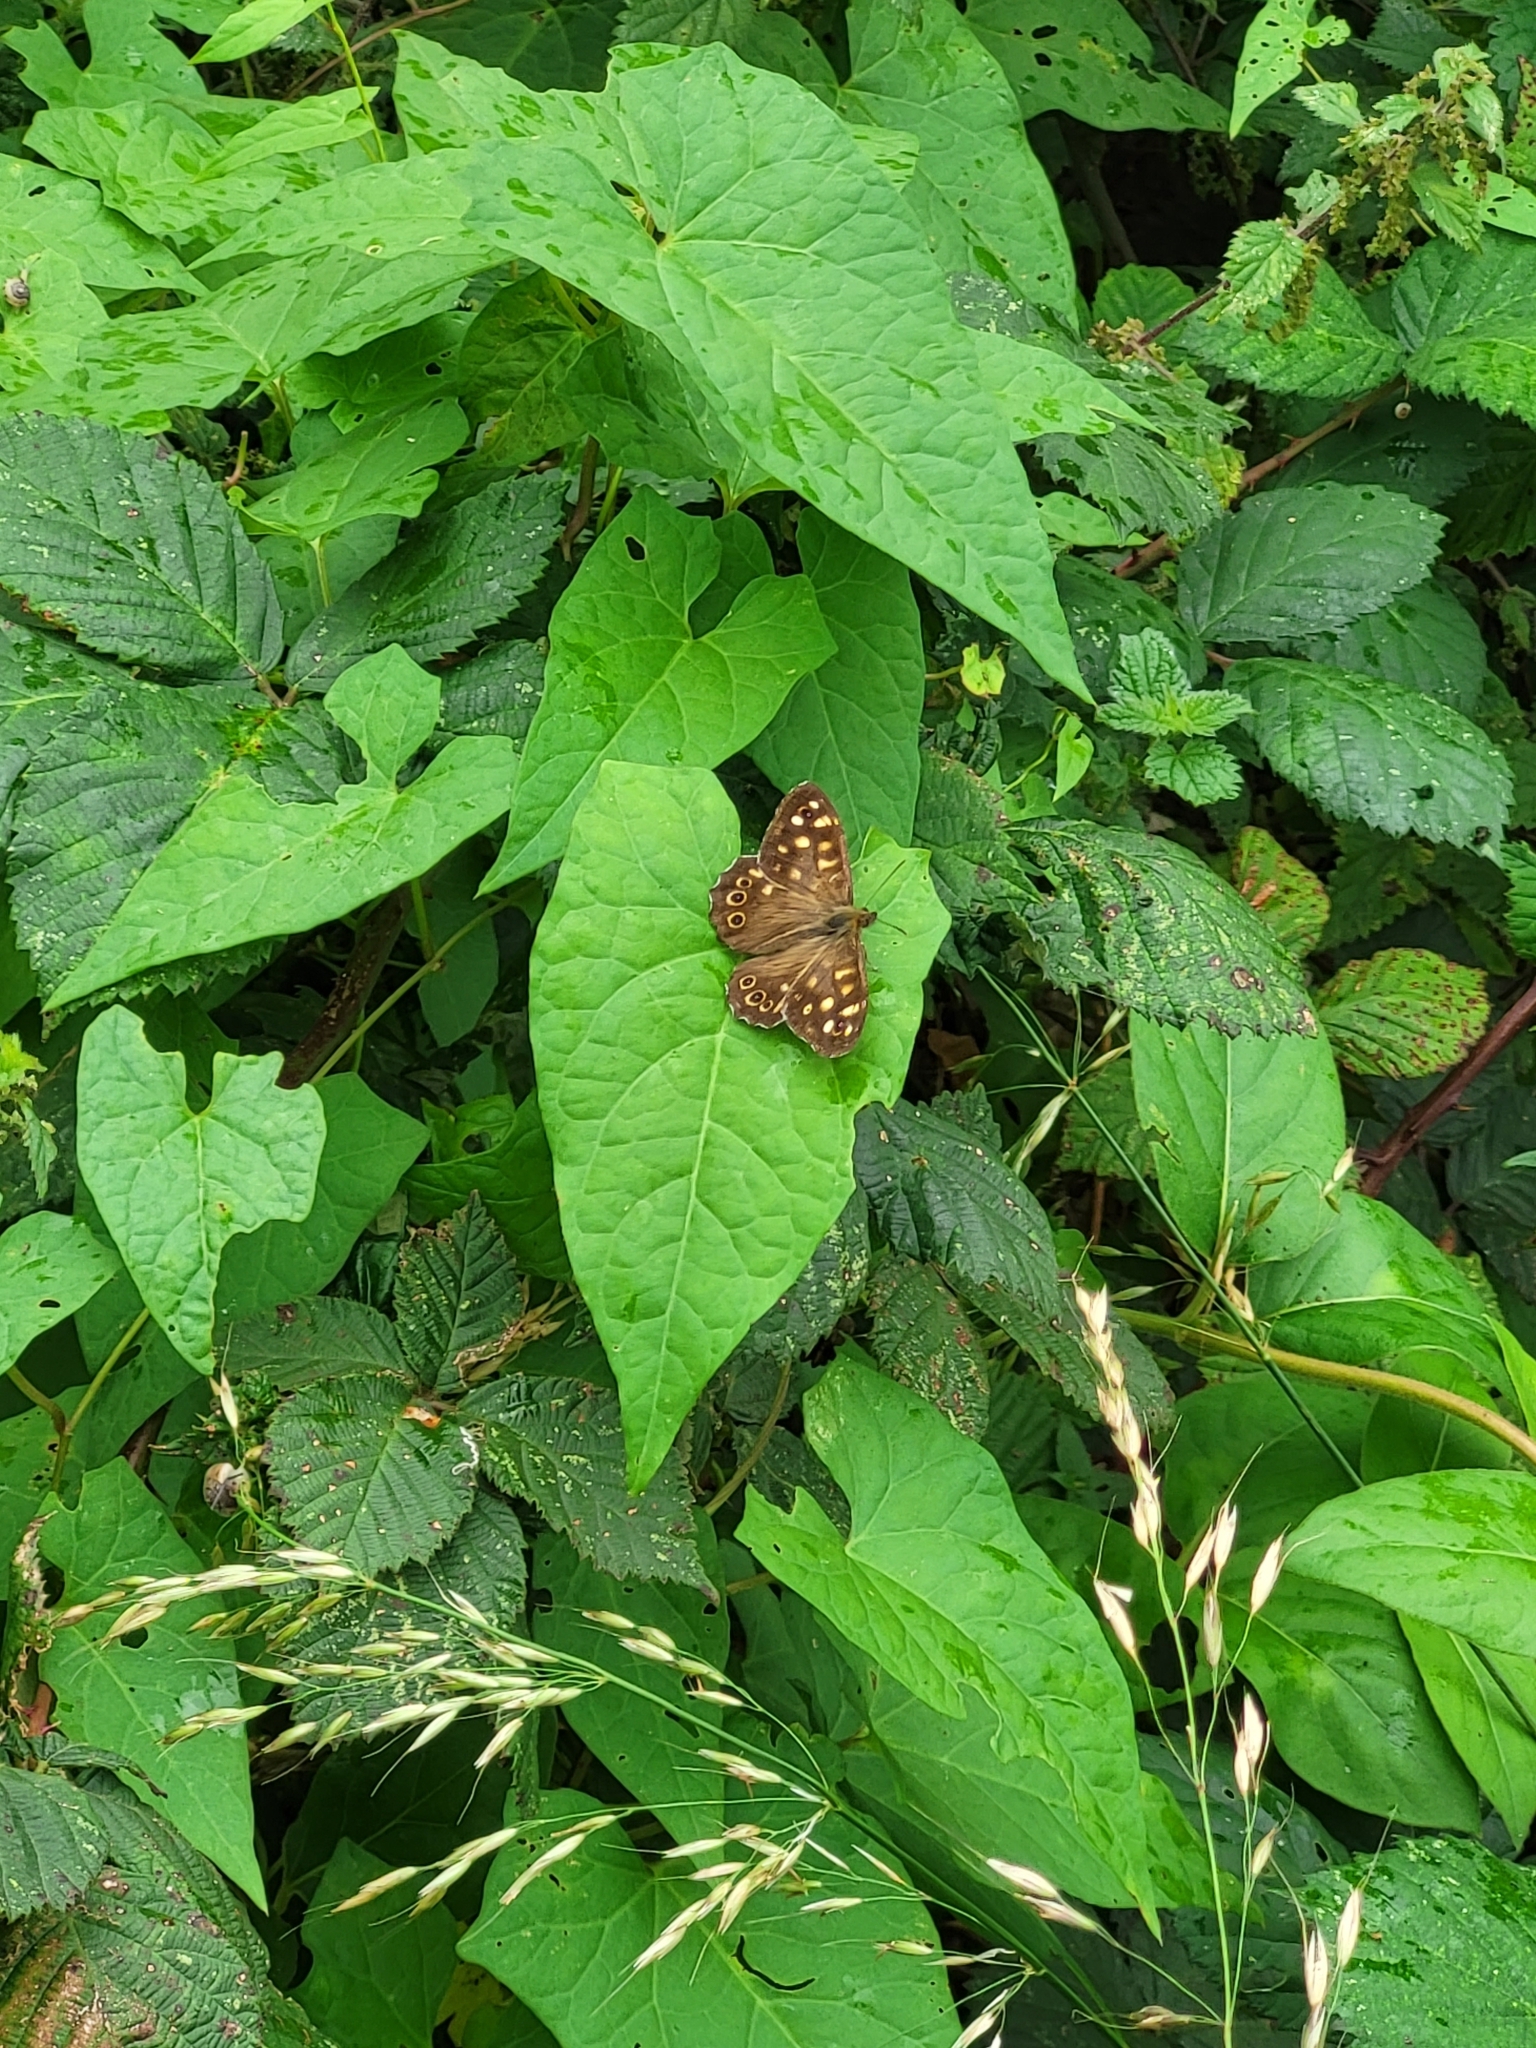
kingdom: Animalia
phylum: Arthropoda
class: Insecta
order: Lepidoptera
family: Nymphalidae
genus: Pararge
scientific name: Pararge aegeria
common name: Speckled wood
